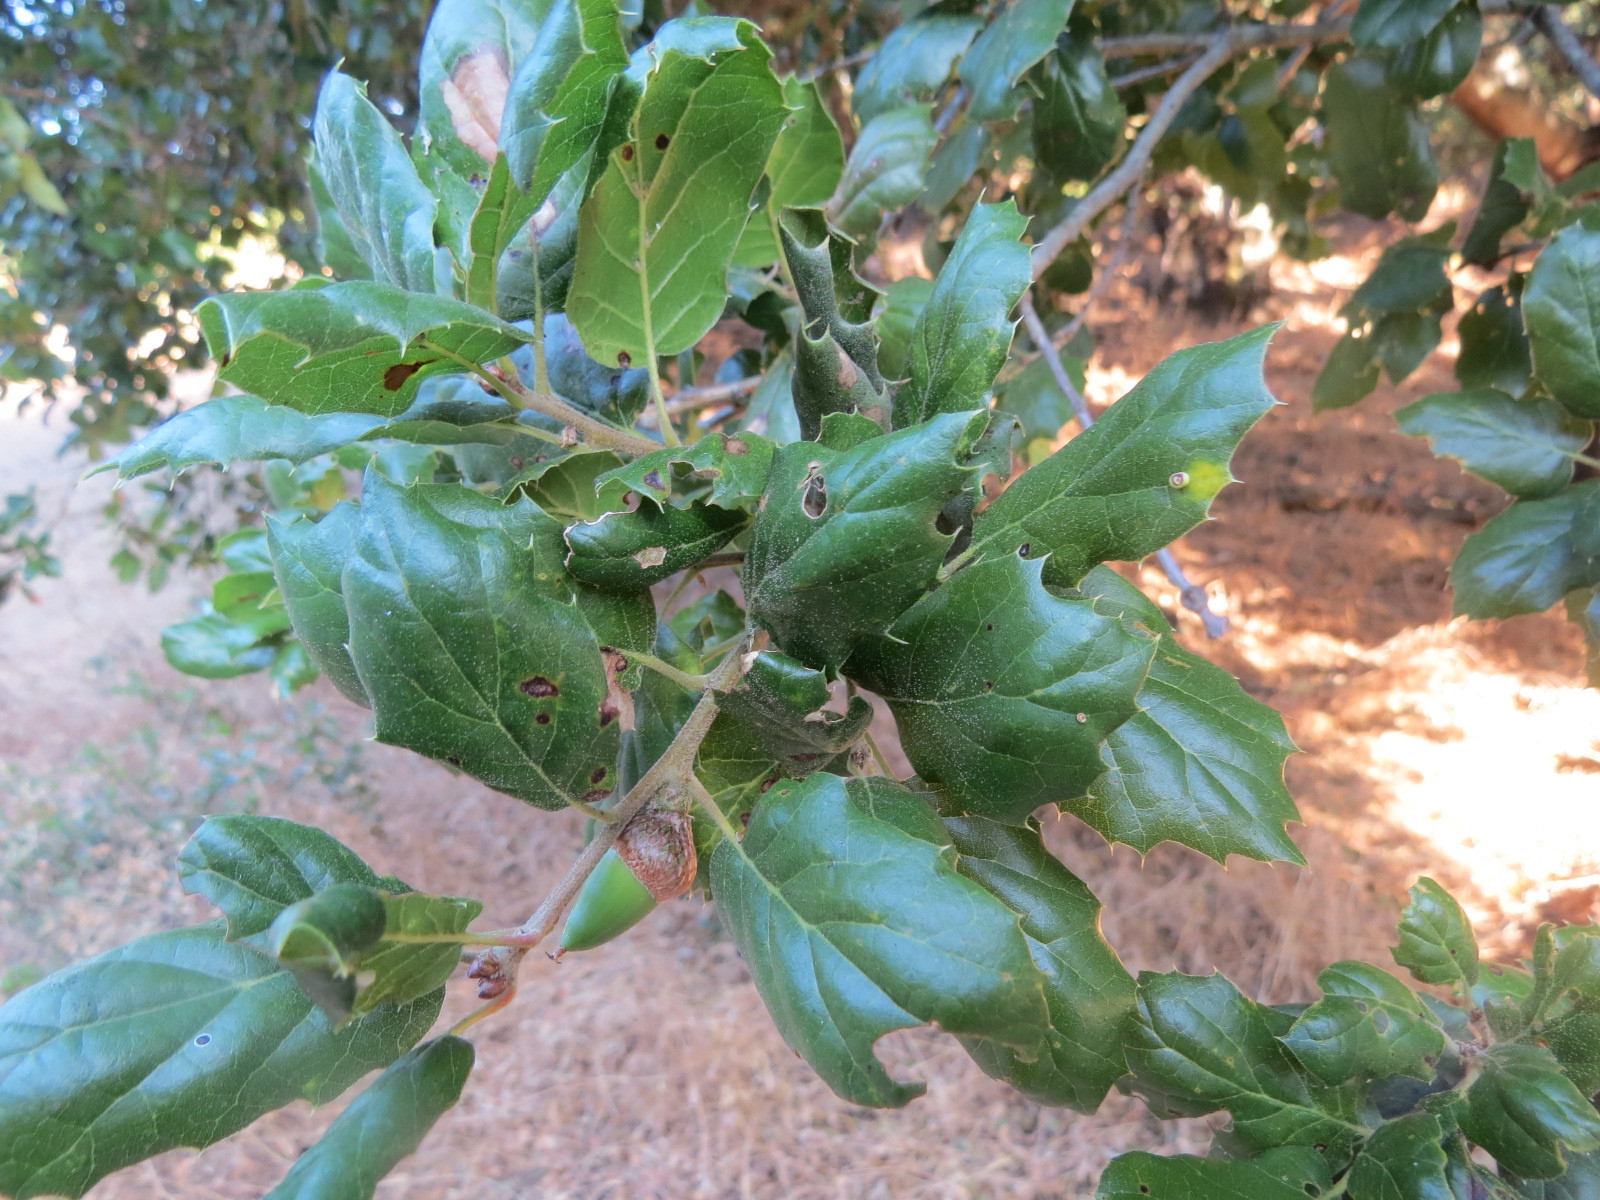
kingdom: Animalia
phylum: Arthropoda
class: Insecta
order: Hymenoptera
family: Cynipidae
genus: Dryocosmus
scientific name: Dryocosmus
